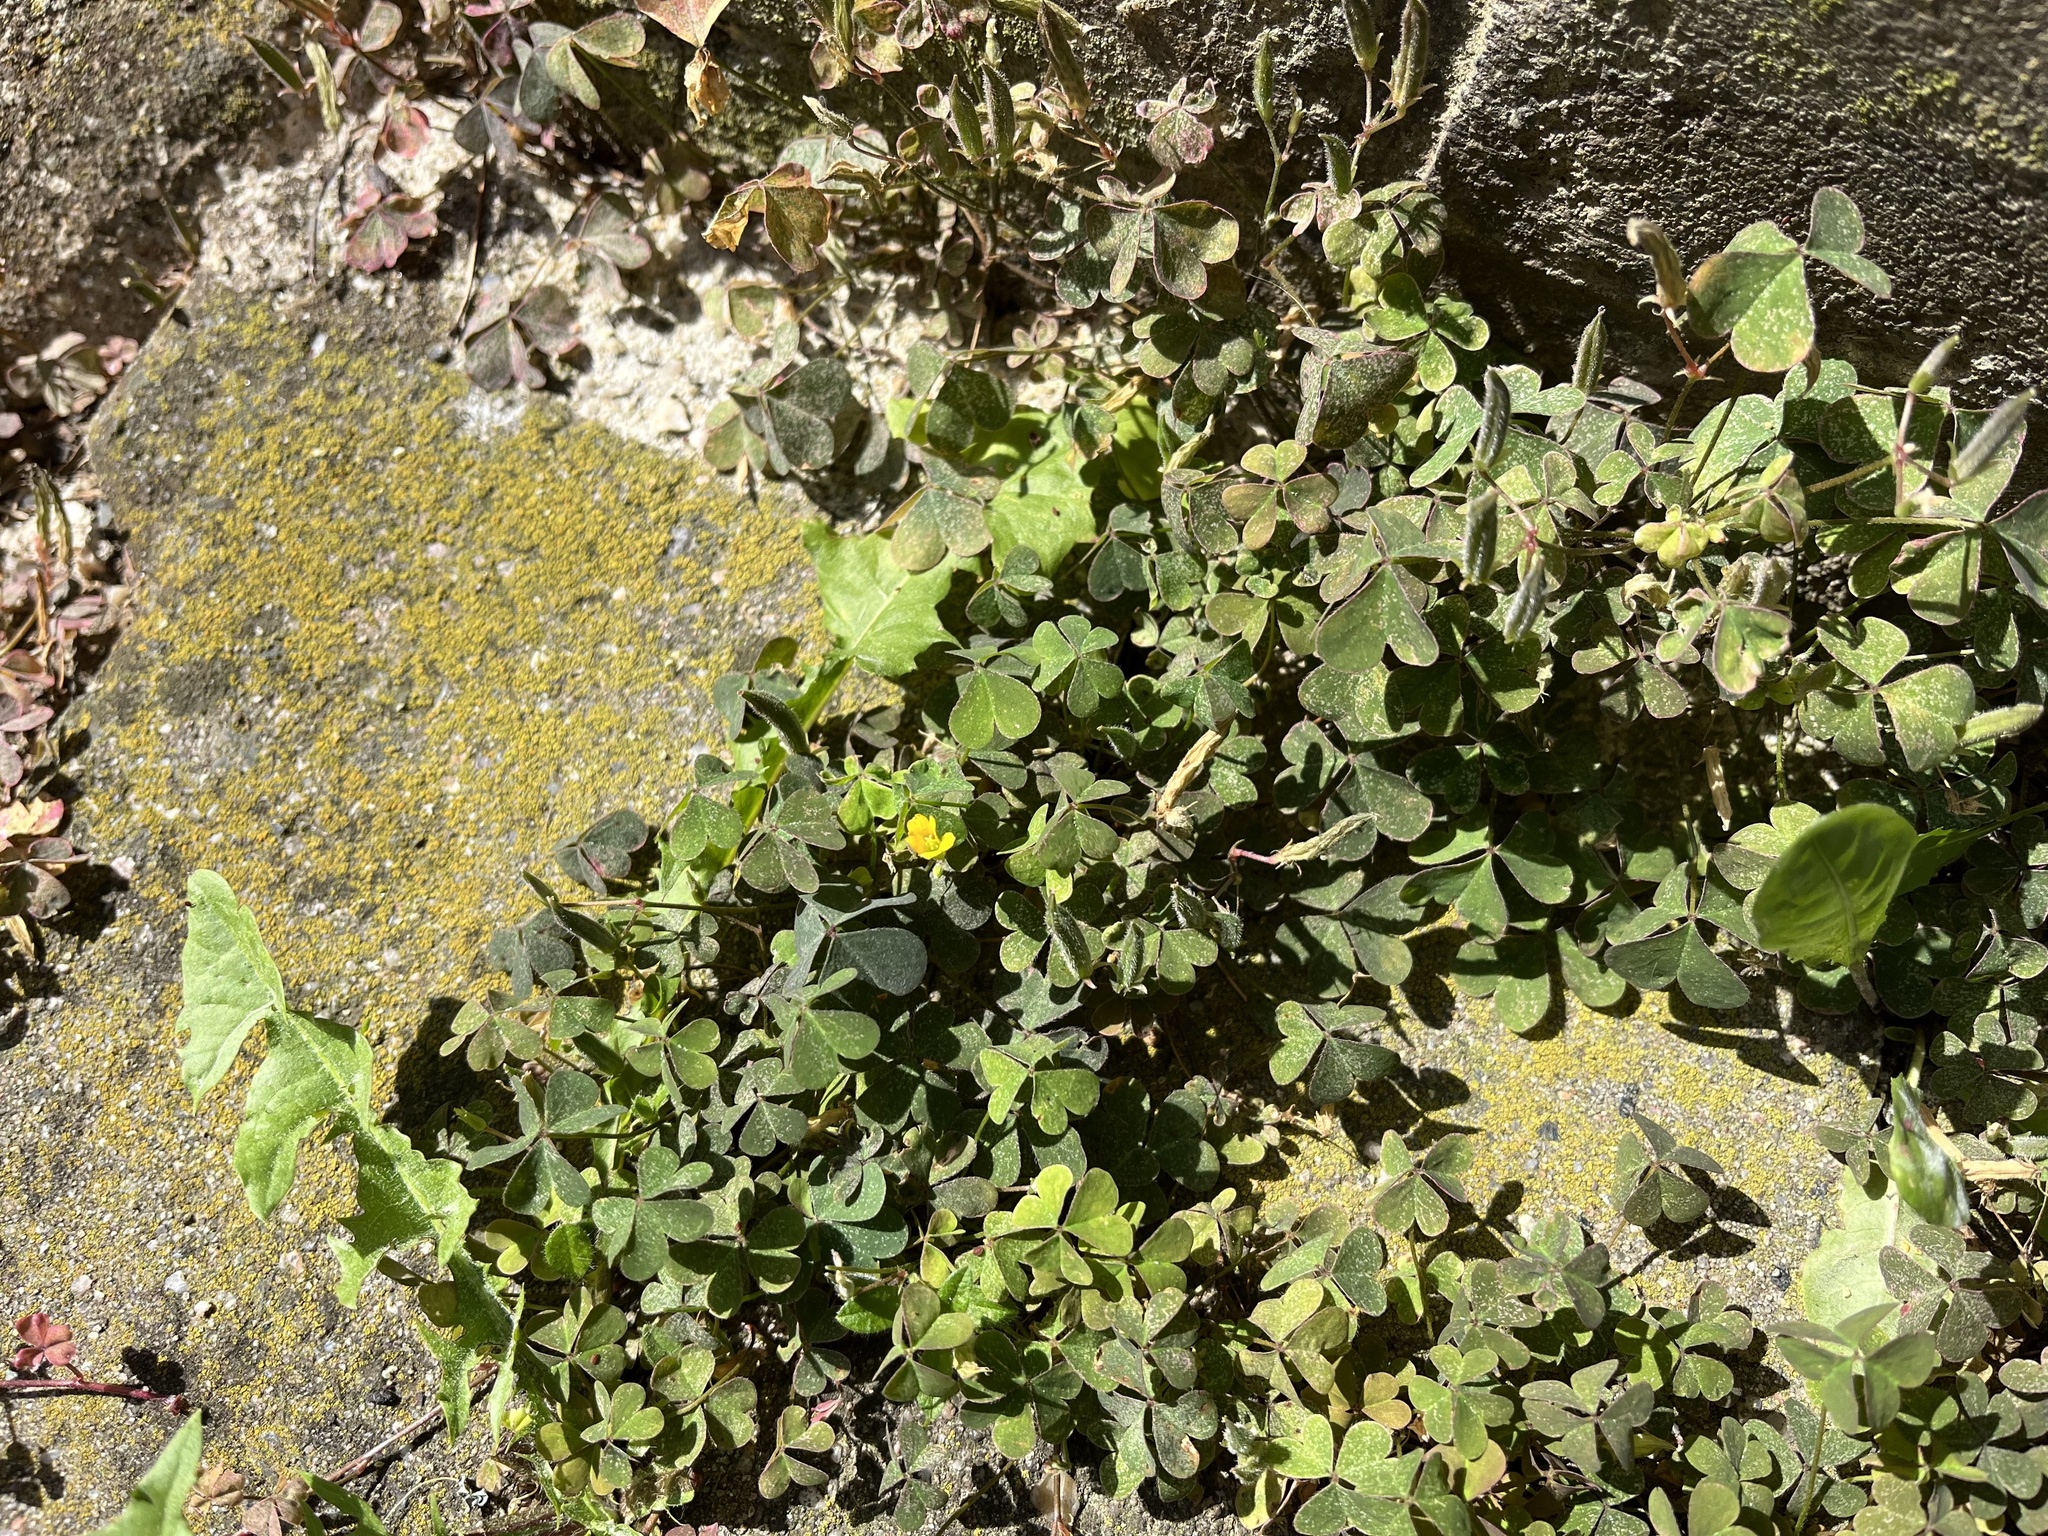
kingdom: Plantae
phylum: Tracheophyta
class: Magnoliopsida
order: Oxalidales
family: Oxalidaceae
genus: Oxalis
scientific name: Oxalis corniculata
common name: Procumbent yellow-sorrel
